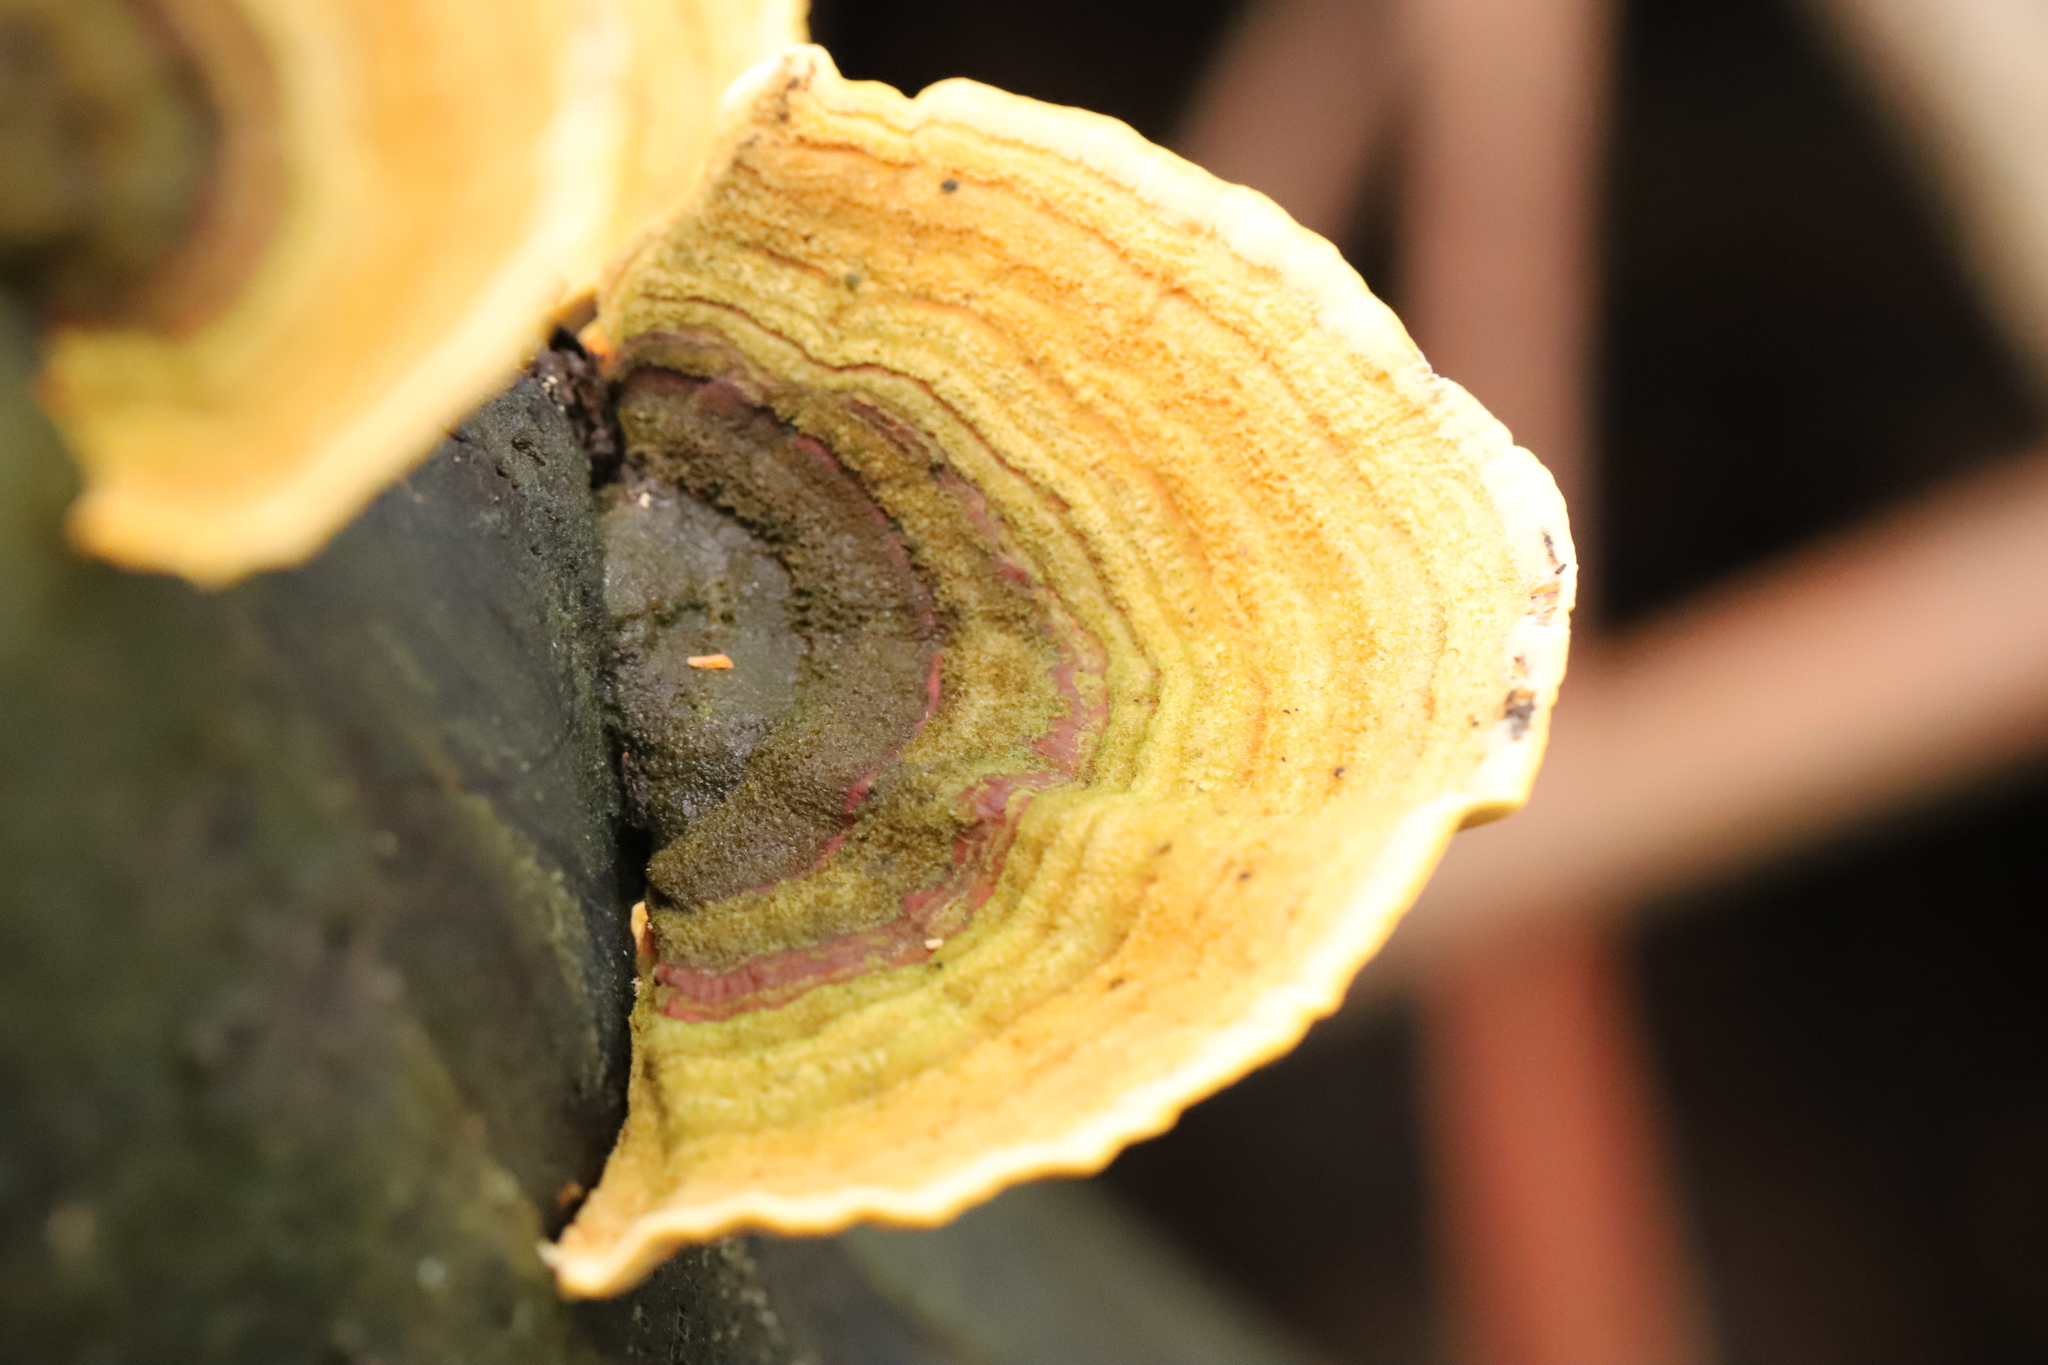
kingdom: Fungi
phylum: Basidiomycota
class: Agaricomycetes
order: Russulales
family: Stereaceae
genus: Stereum
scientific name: Stereum versicolor
